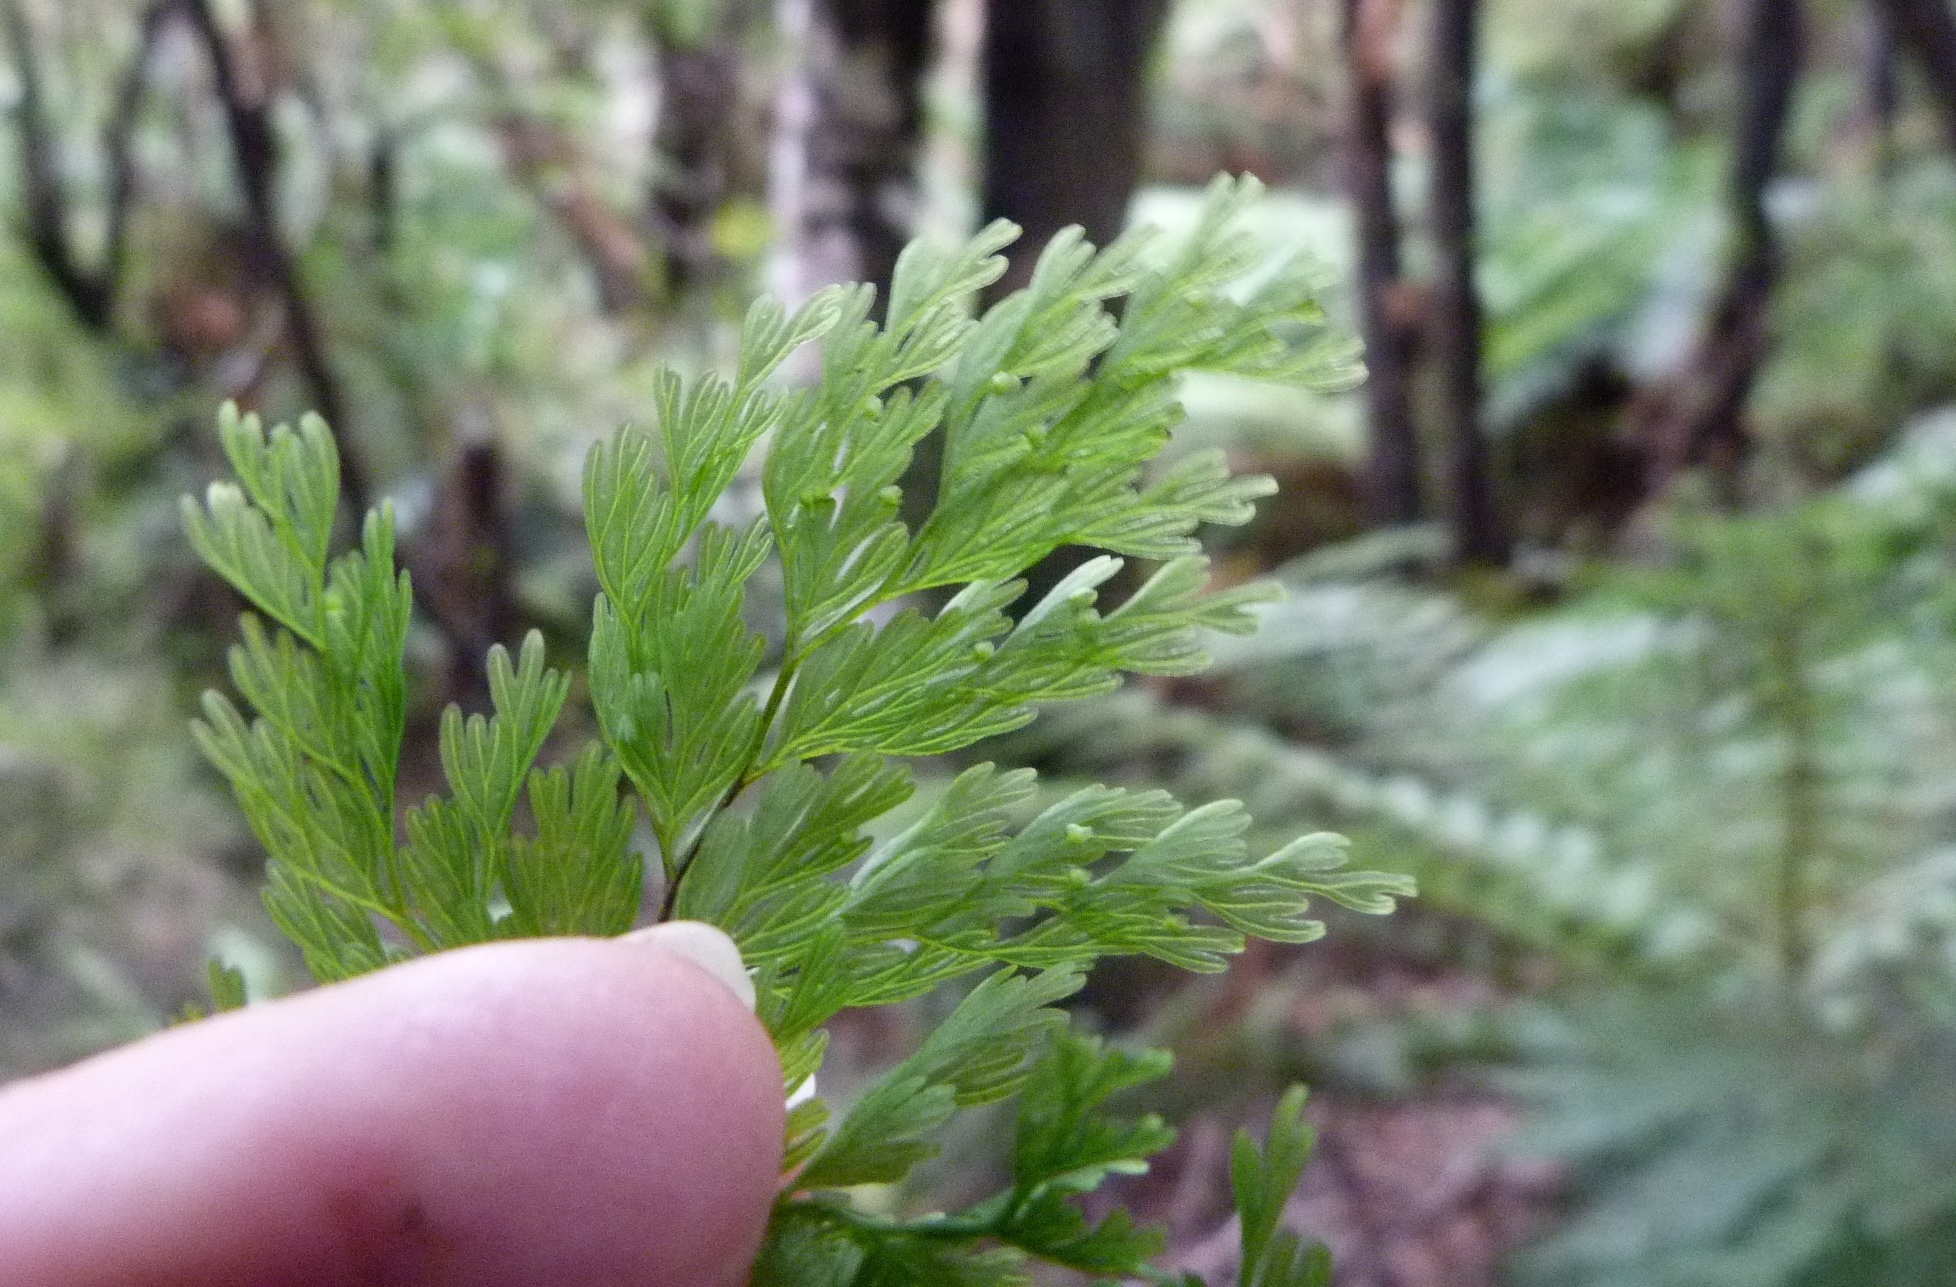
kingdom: Plantae
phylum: Tracheophyta
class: Polypodiopsida
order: Hymenophyllales
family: Hymenophyllaceae
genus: Hymenophyllum
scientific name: Hymenophyllum demissum
